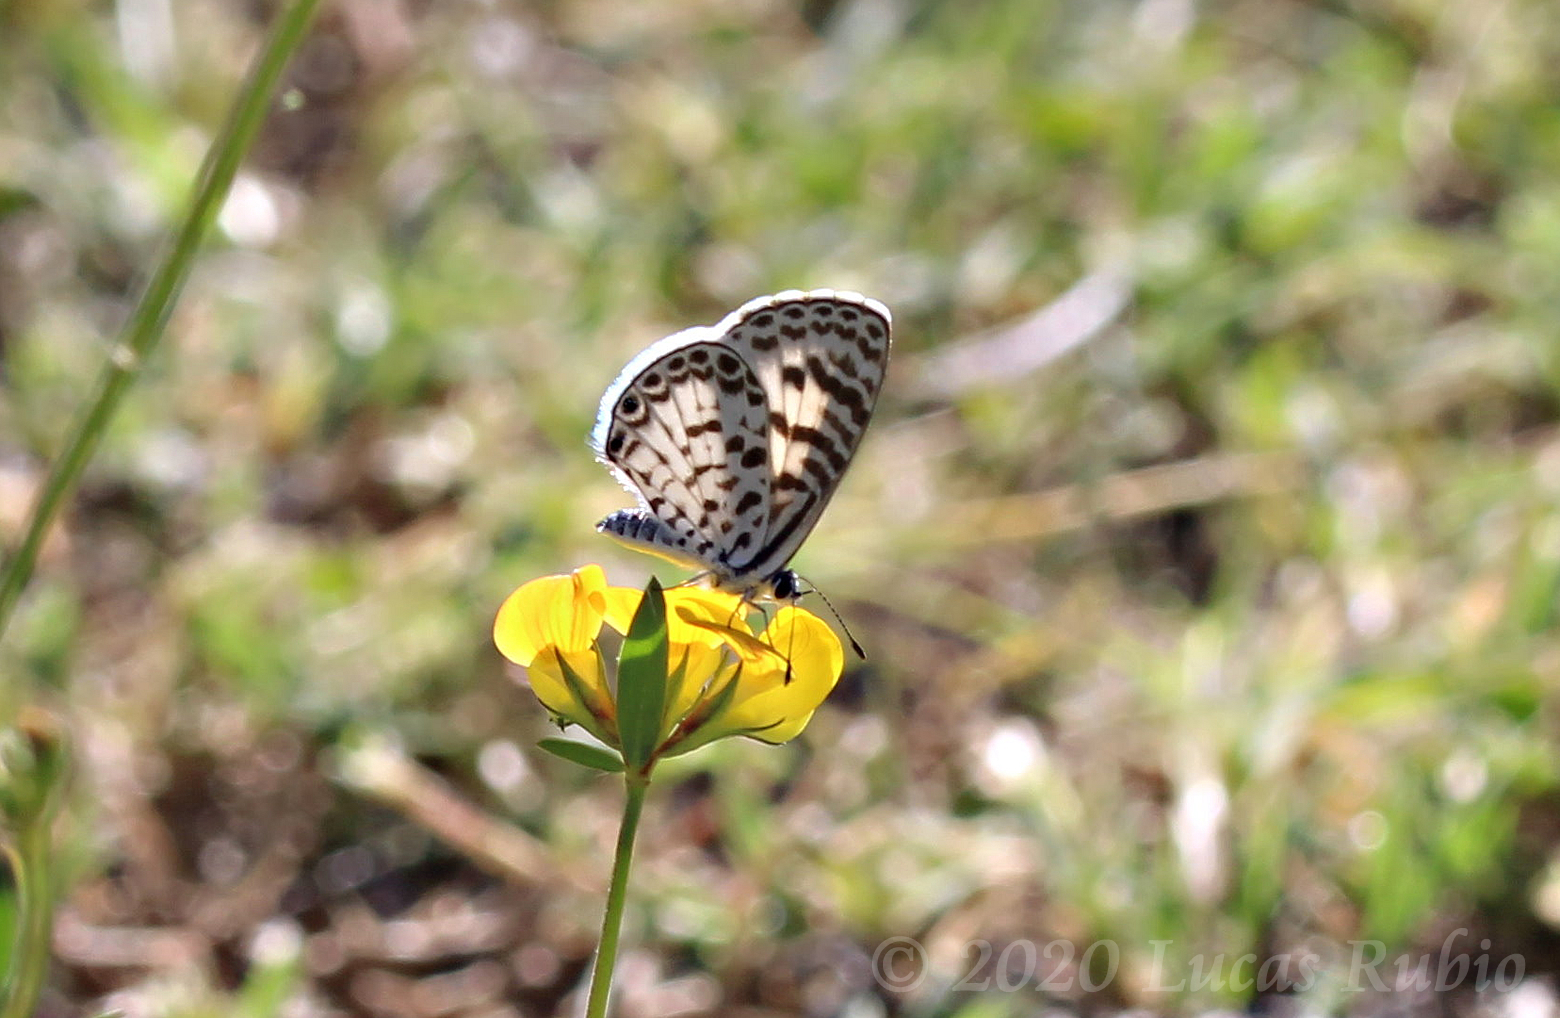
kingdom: Animalia
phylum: Arthropoda
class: Insecta
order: Lepidoptera
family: Lycaenidae
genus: Leptotes
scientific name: Leptotes cassius
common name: Cassius blue
